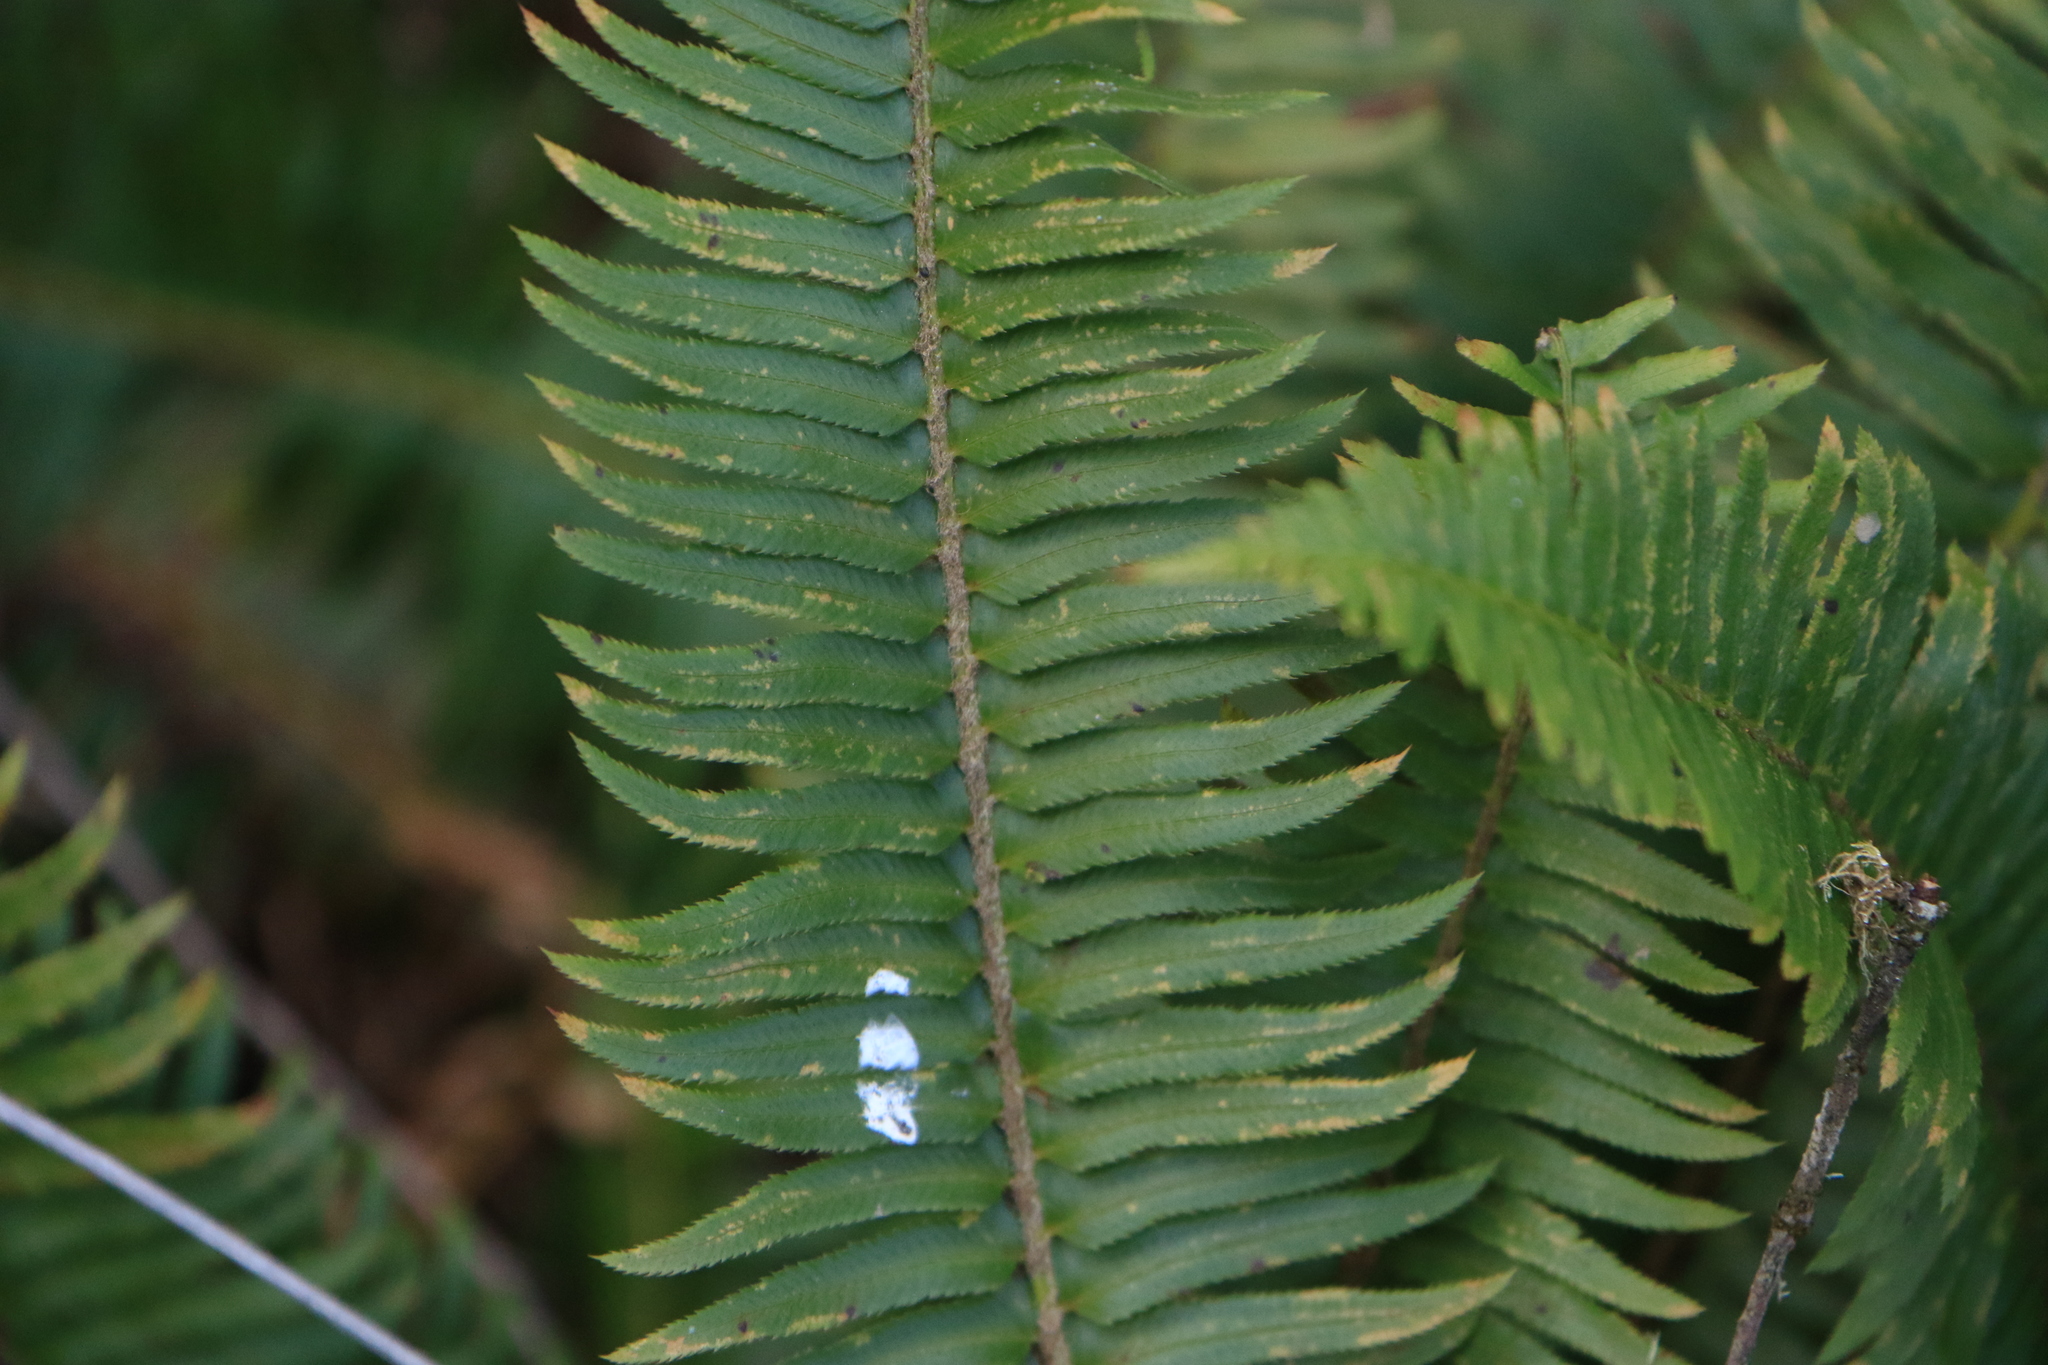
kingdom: Plantae
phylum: Tracheophyta
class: Polypodiopsida
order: Polypodiales
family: Dryopteridaceae
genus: Polystichum
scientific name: Polystichum munitum
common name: Western sword-fern
